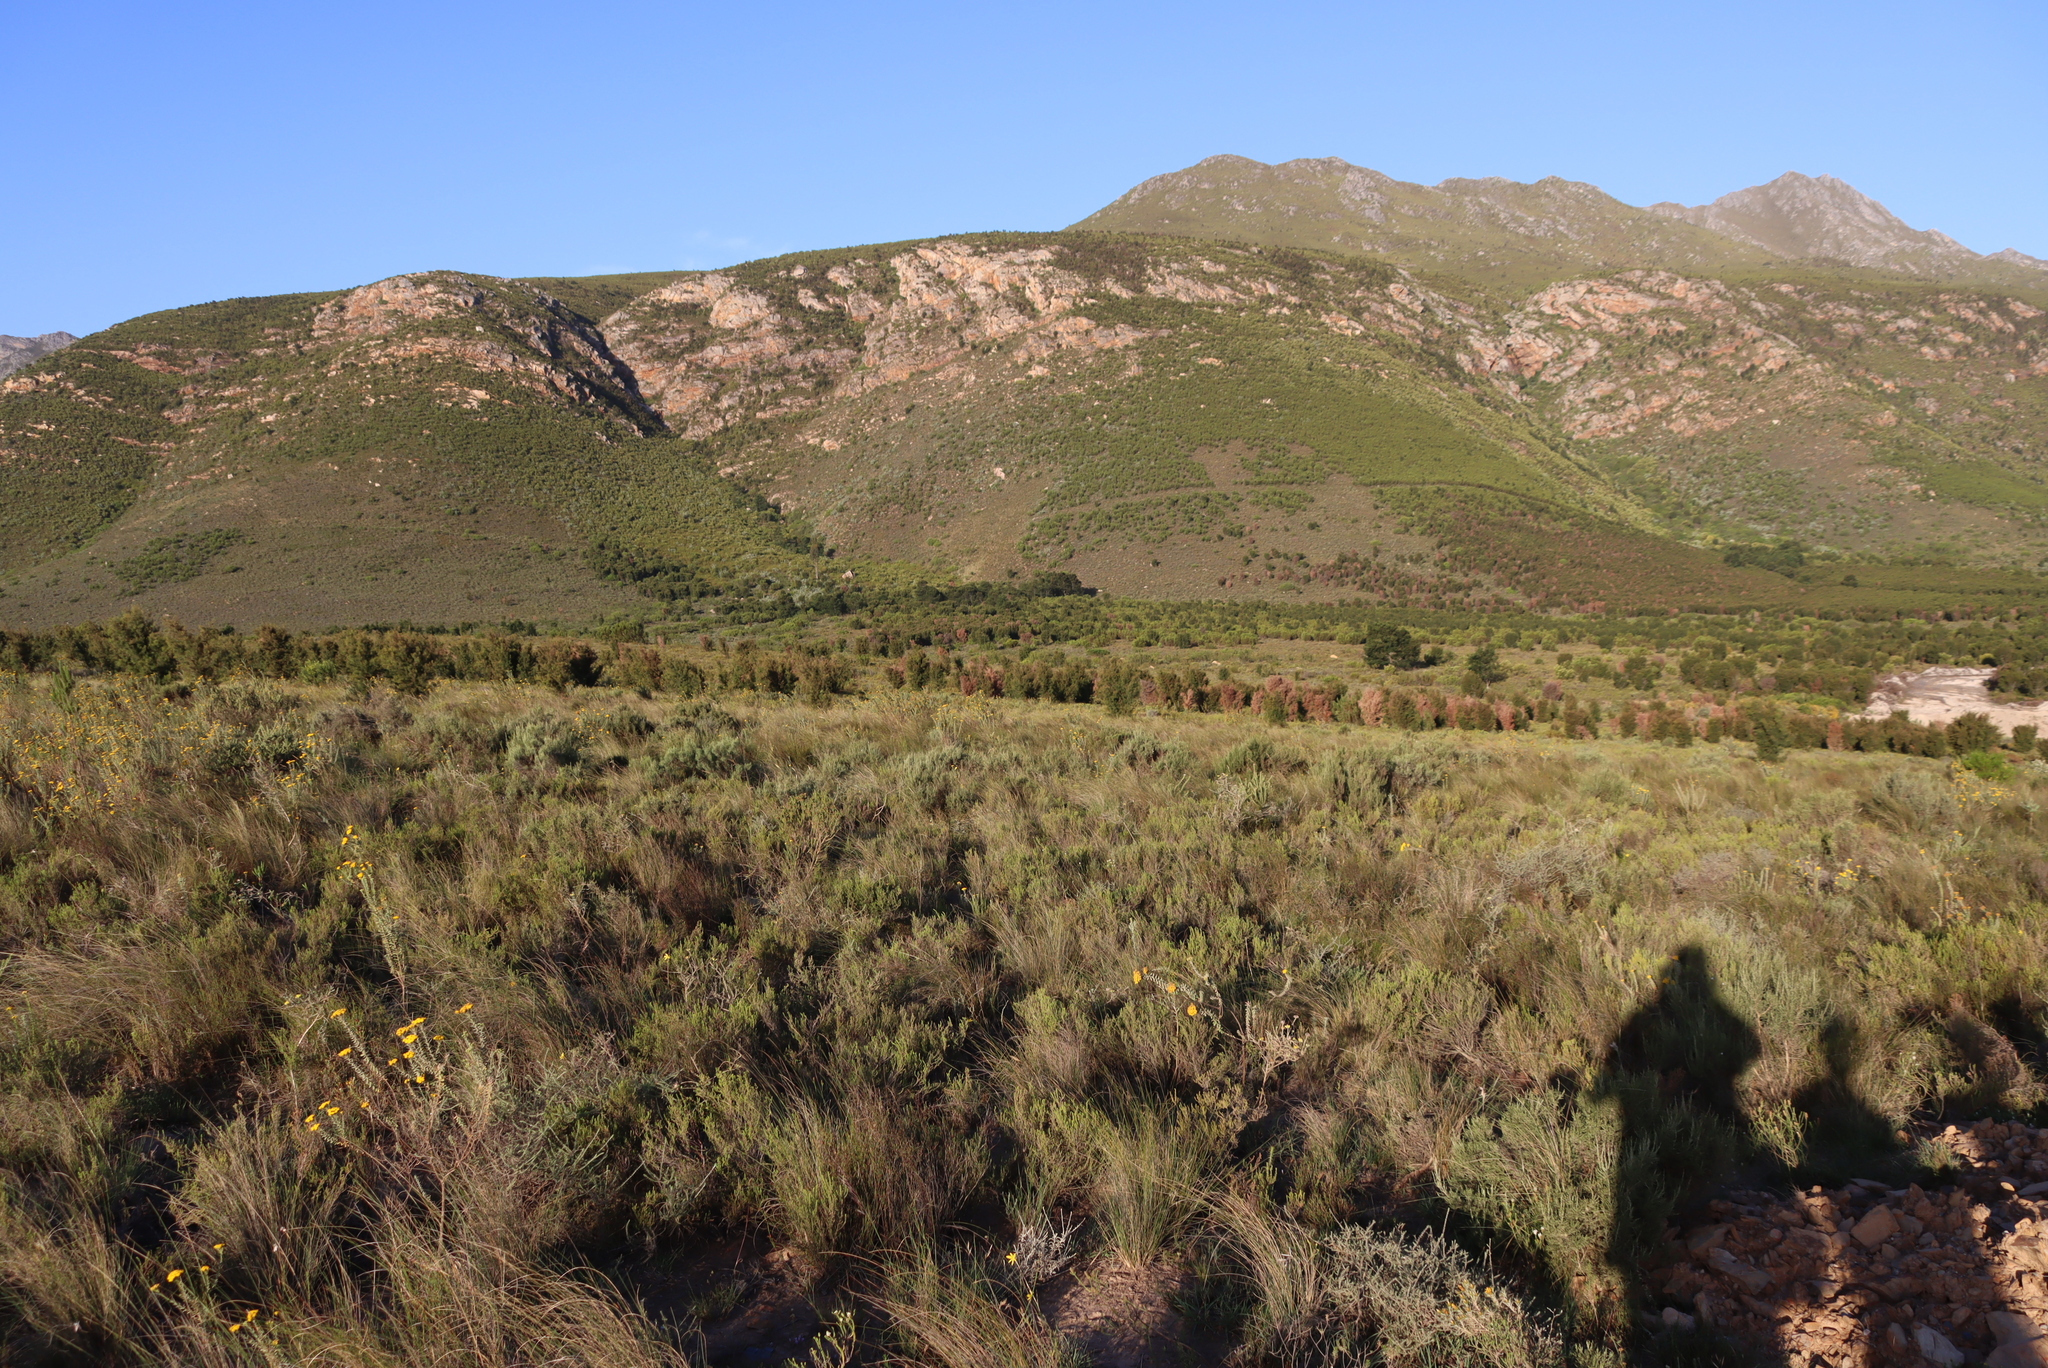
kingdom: Plantae
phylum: Tracheophyta
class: Magnoliopsida
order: Proteales
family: Proteaceae
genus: Hakea
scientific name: Hakea sericea
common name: Needle bush
